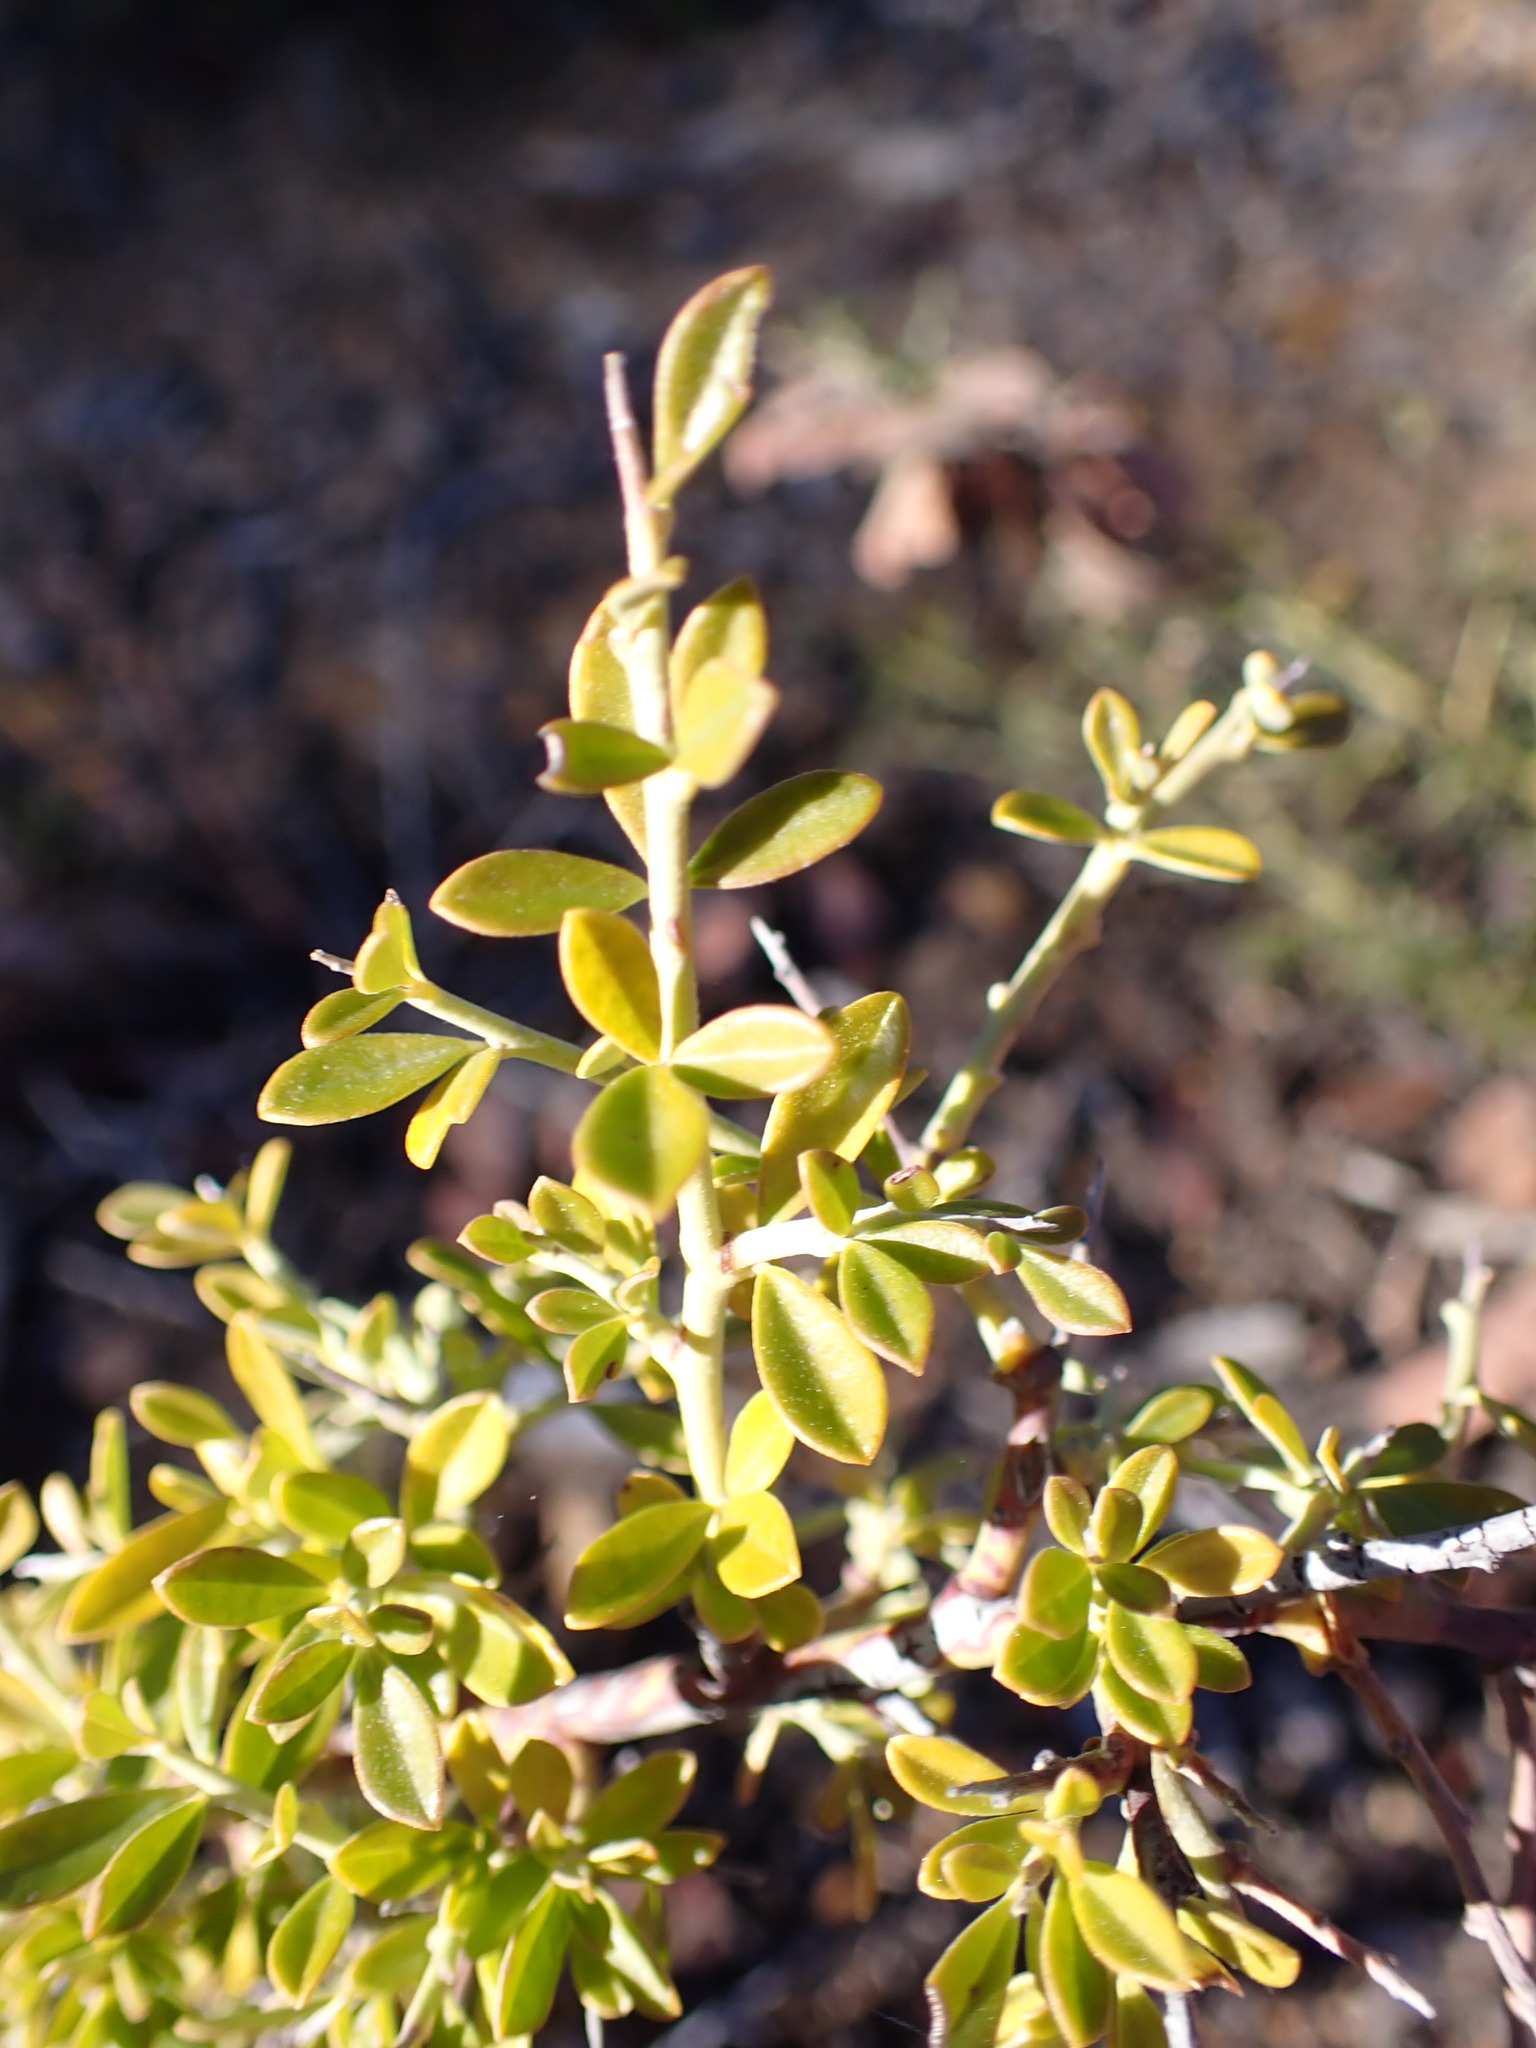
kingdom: Plantae
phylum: Tracheophyta
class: Magnoliopsida
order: Fabales
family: Fabaceae
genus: Pickeringia
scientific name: Pickeringia montana
